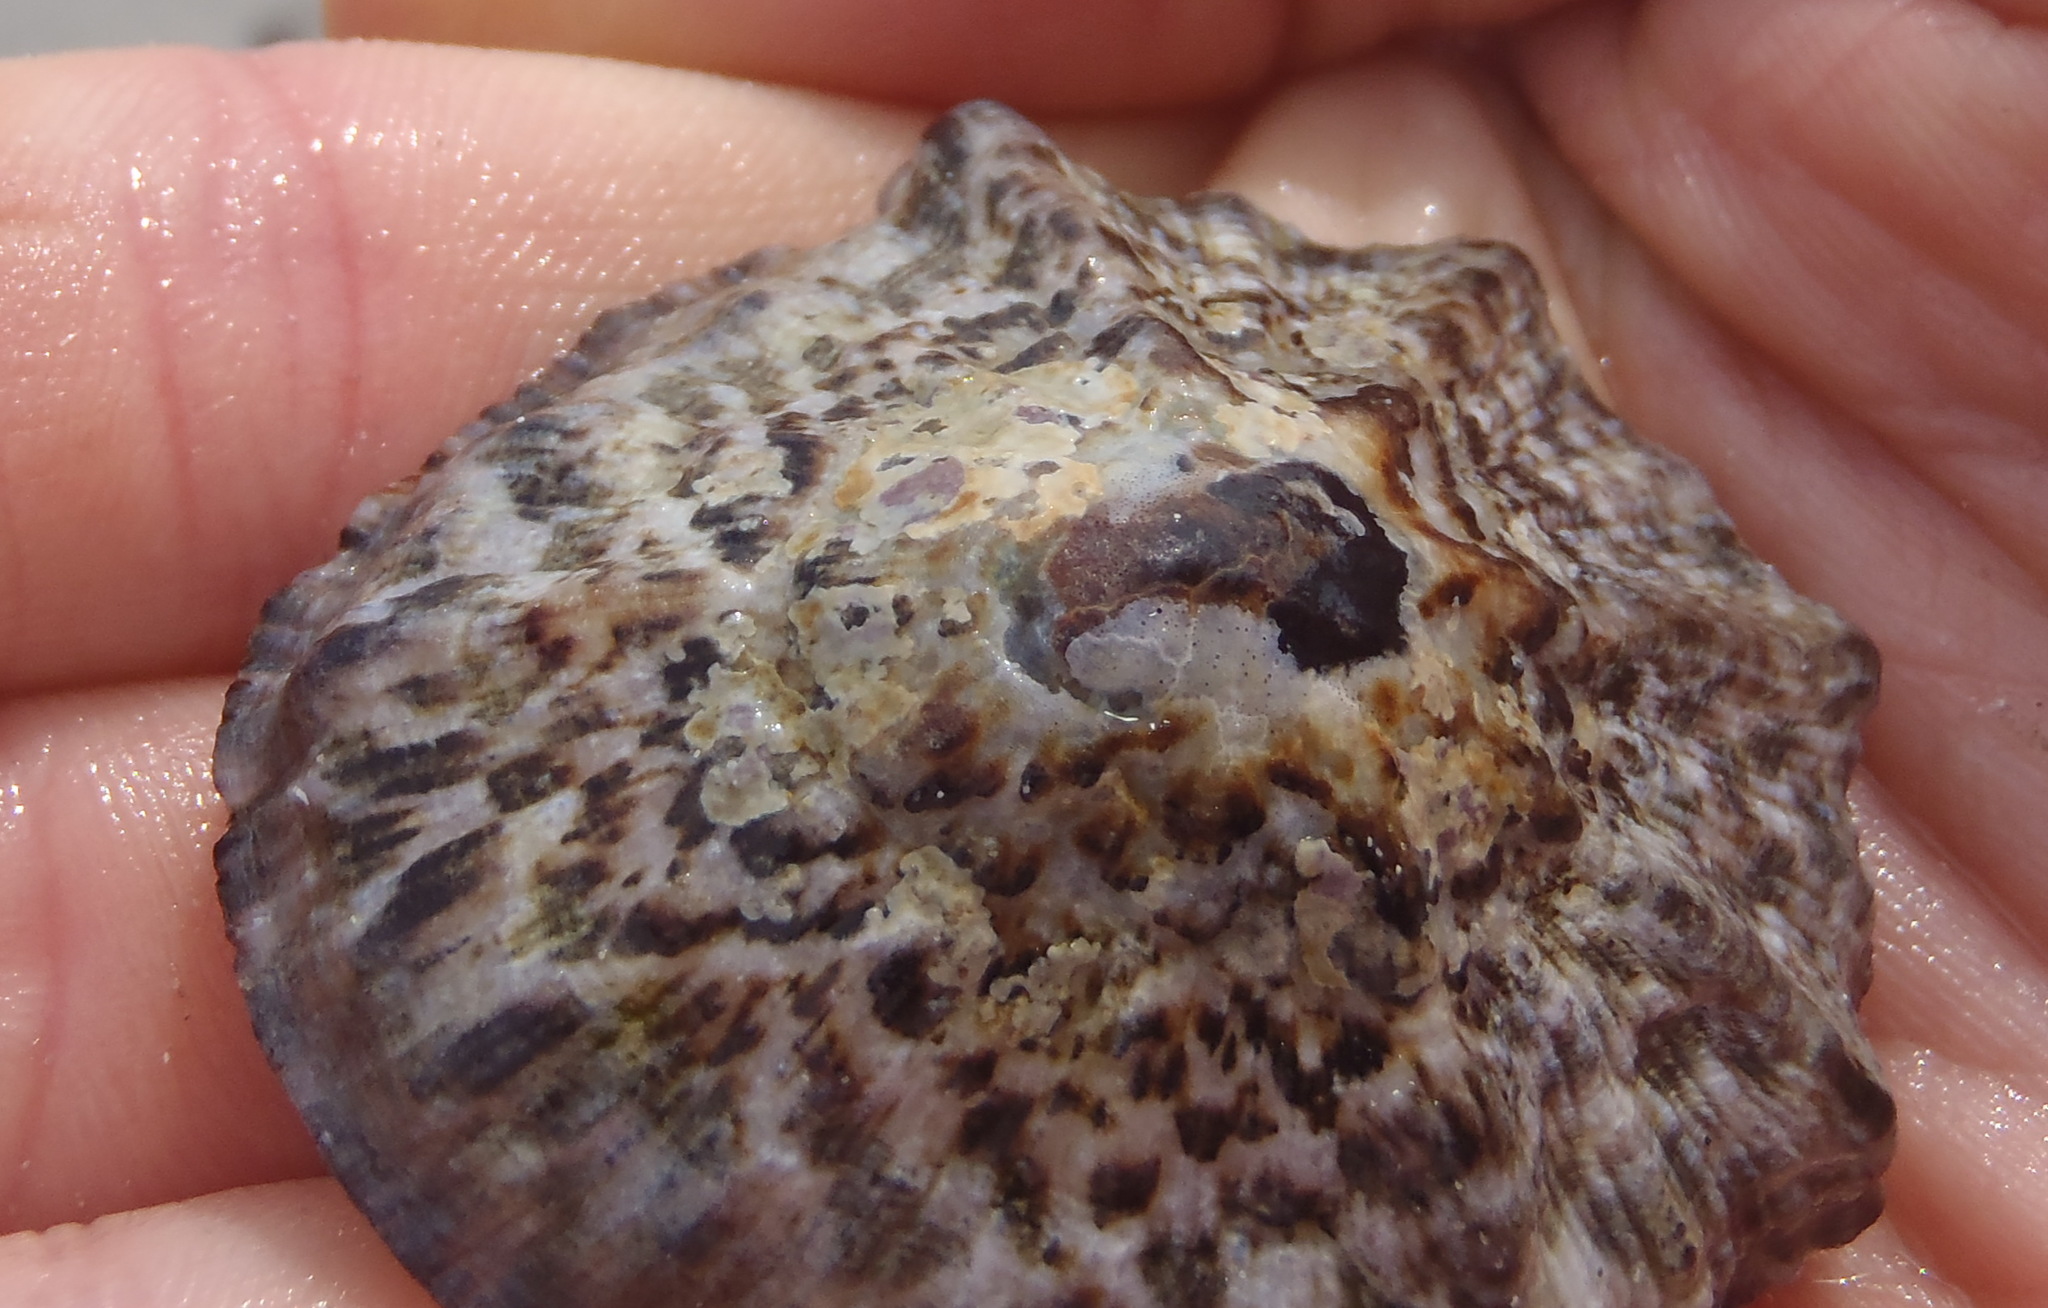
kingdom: Animalia
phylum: Mollusca
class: Gastropoda
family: Patellidae
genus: Cymbula
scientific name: Cymbula granatina
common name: Granite limpet
